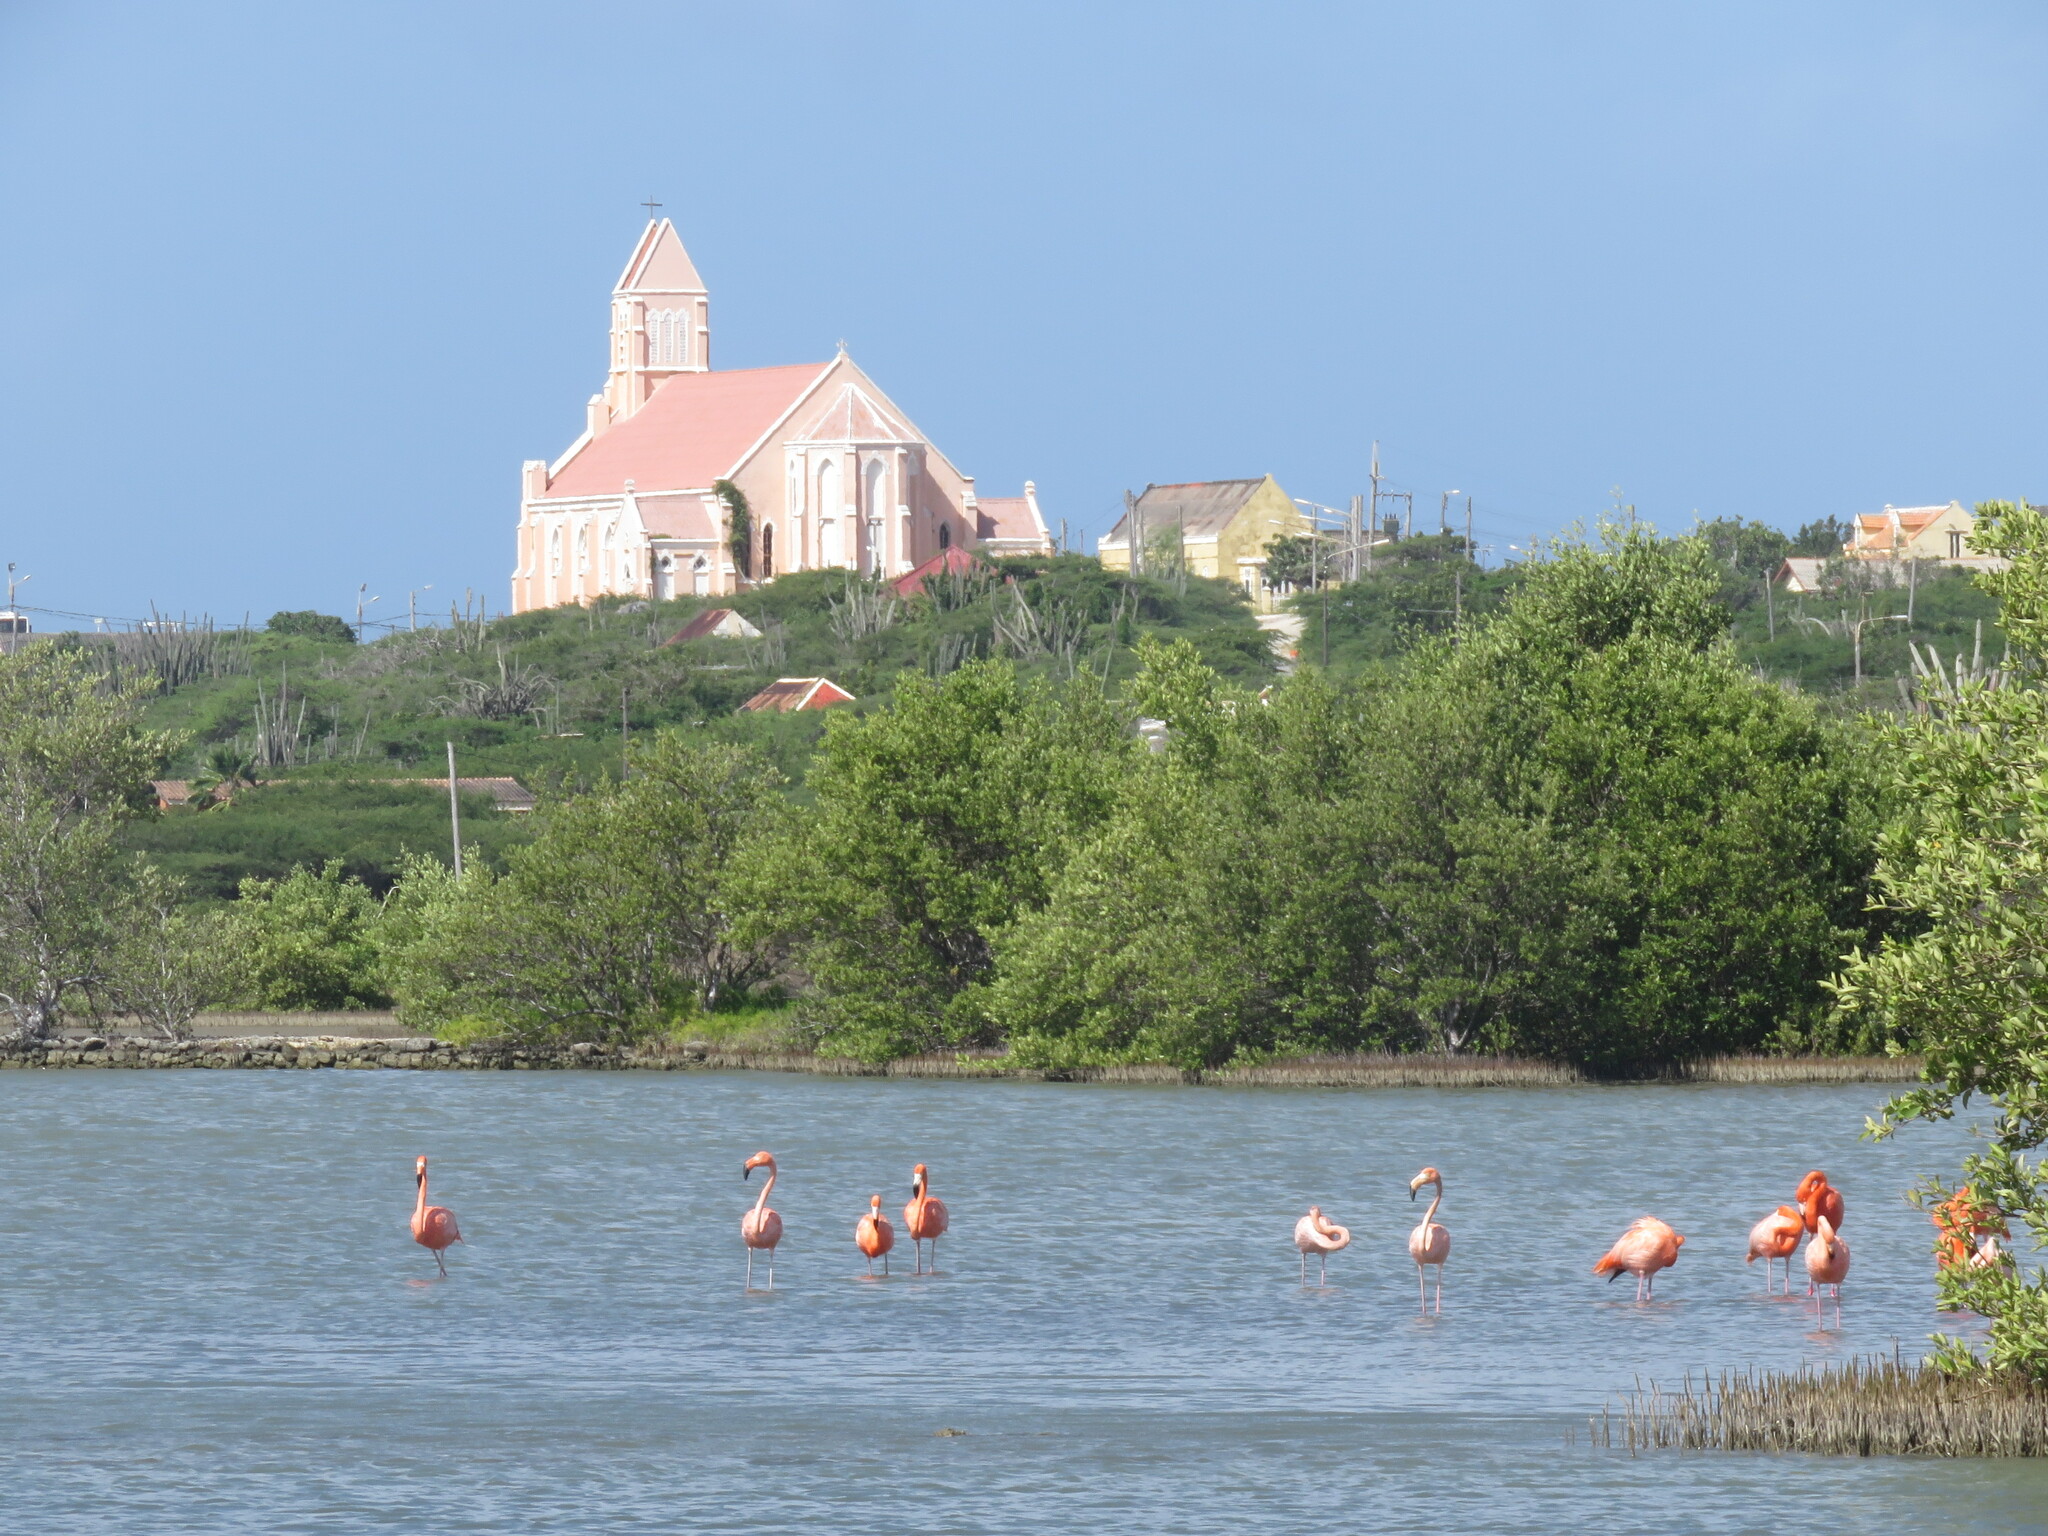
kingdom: Animalia
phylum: Chordata
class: Aves
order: Phoenicopteriformes
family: Phoenicopteridae
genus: Phoenicopterus
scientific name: Phoenicopterus ruber
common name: American flamingo
